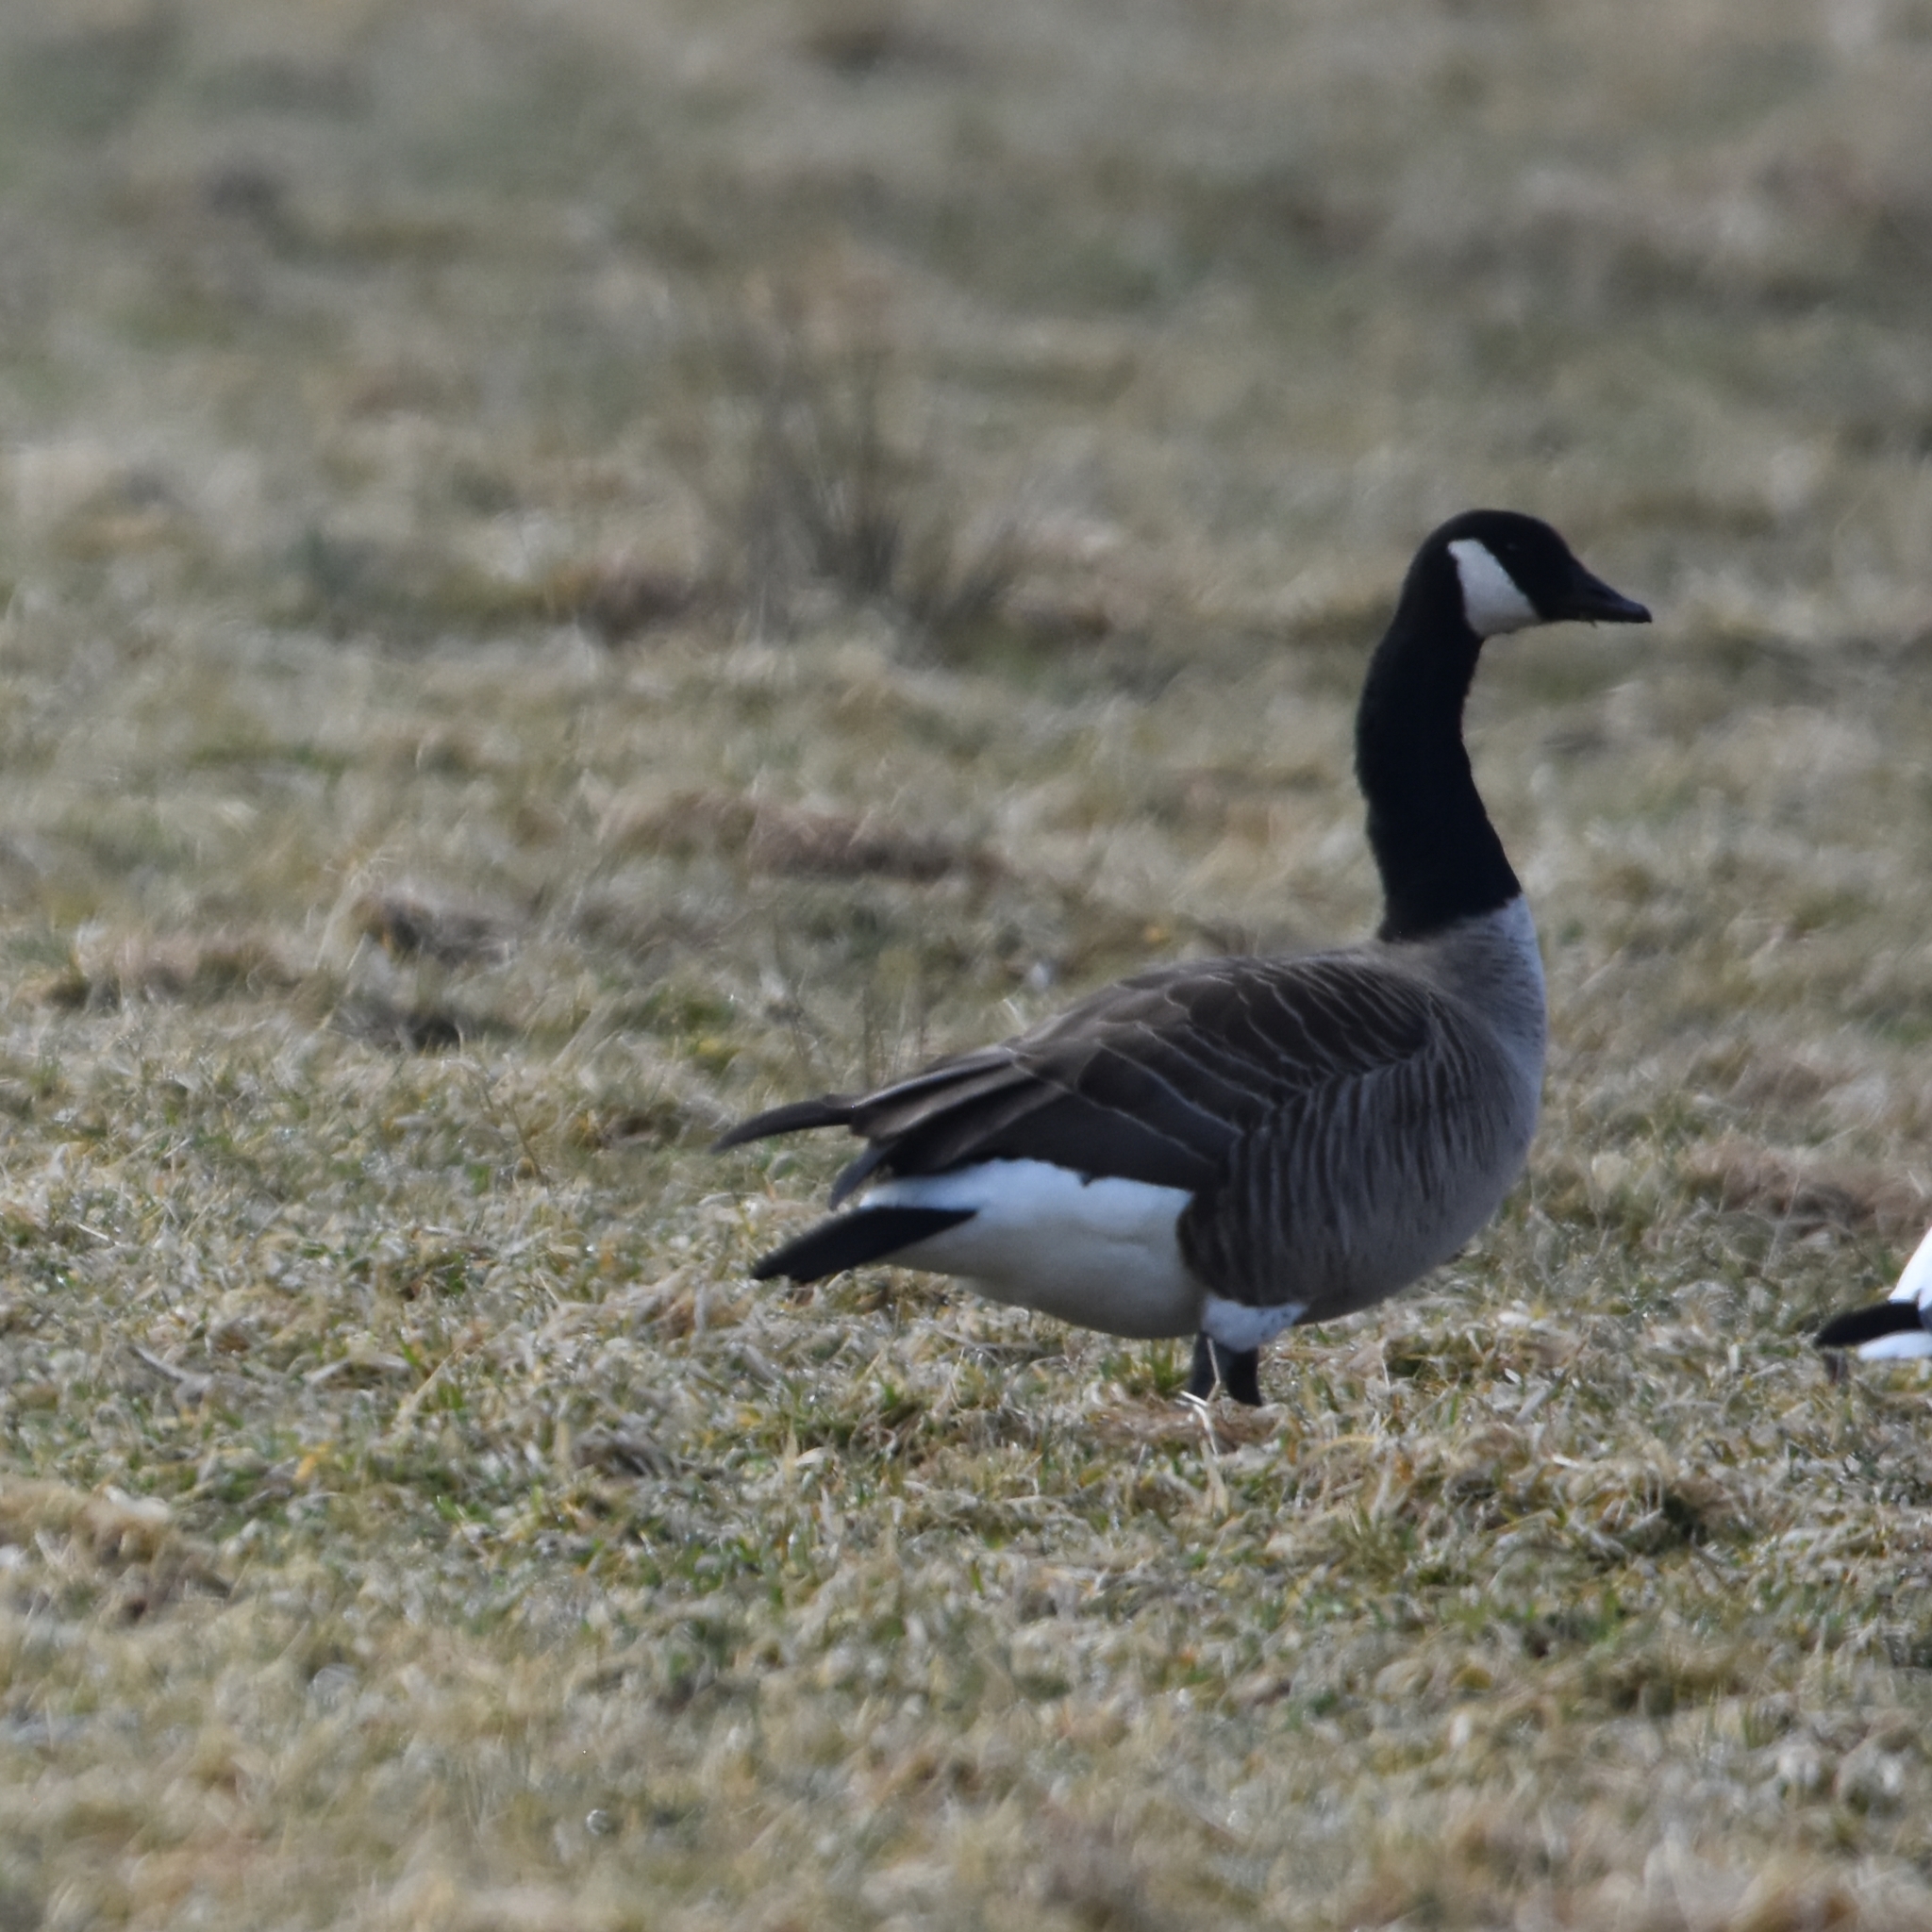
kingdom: Animalia
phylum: Chordata
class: Aves
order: Anseriformes
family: Anatidae
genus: Branta
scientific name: Branta canadensis
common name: Canada goose
